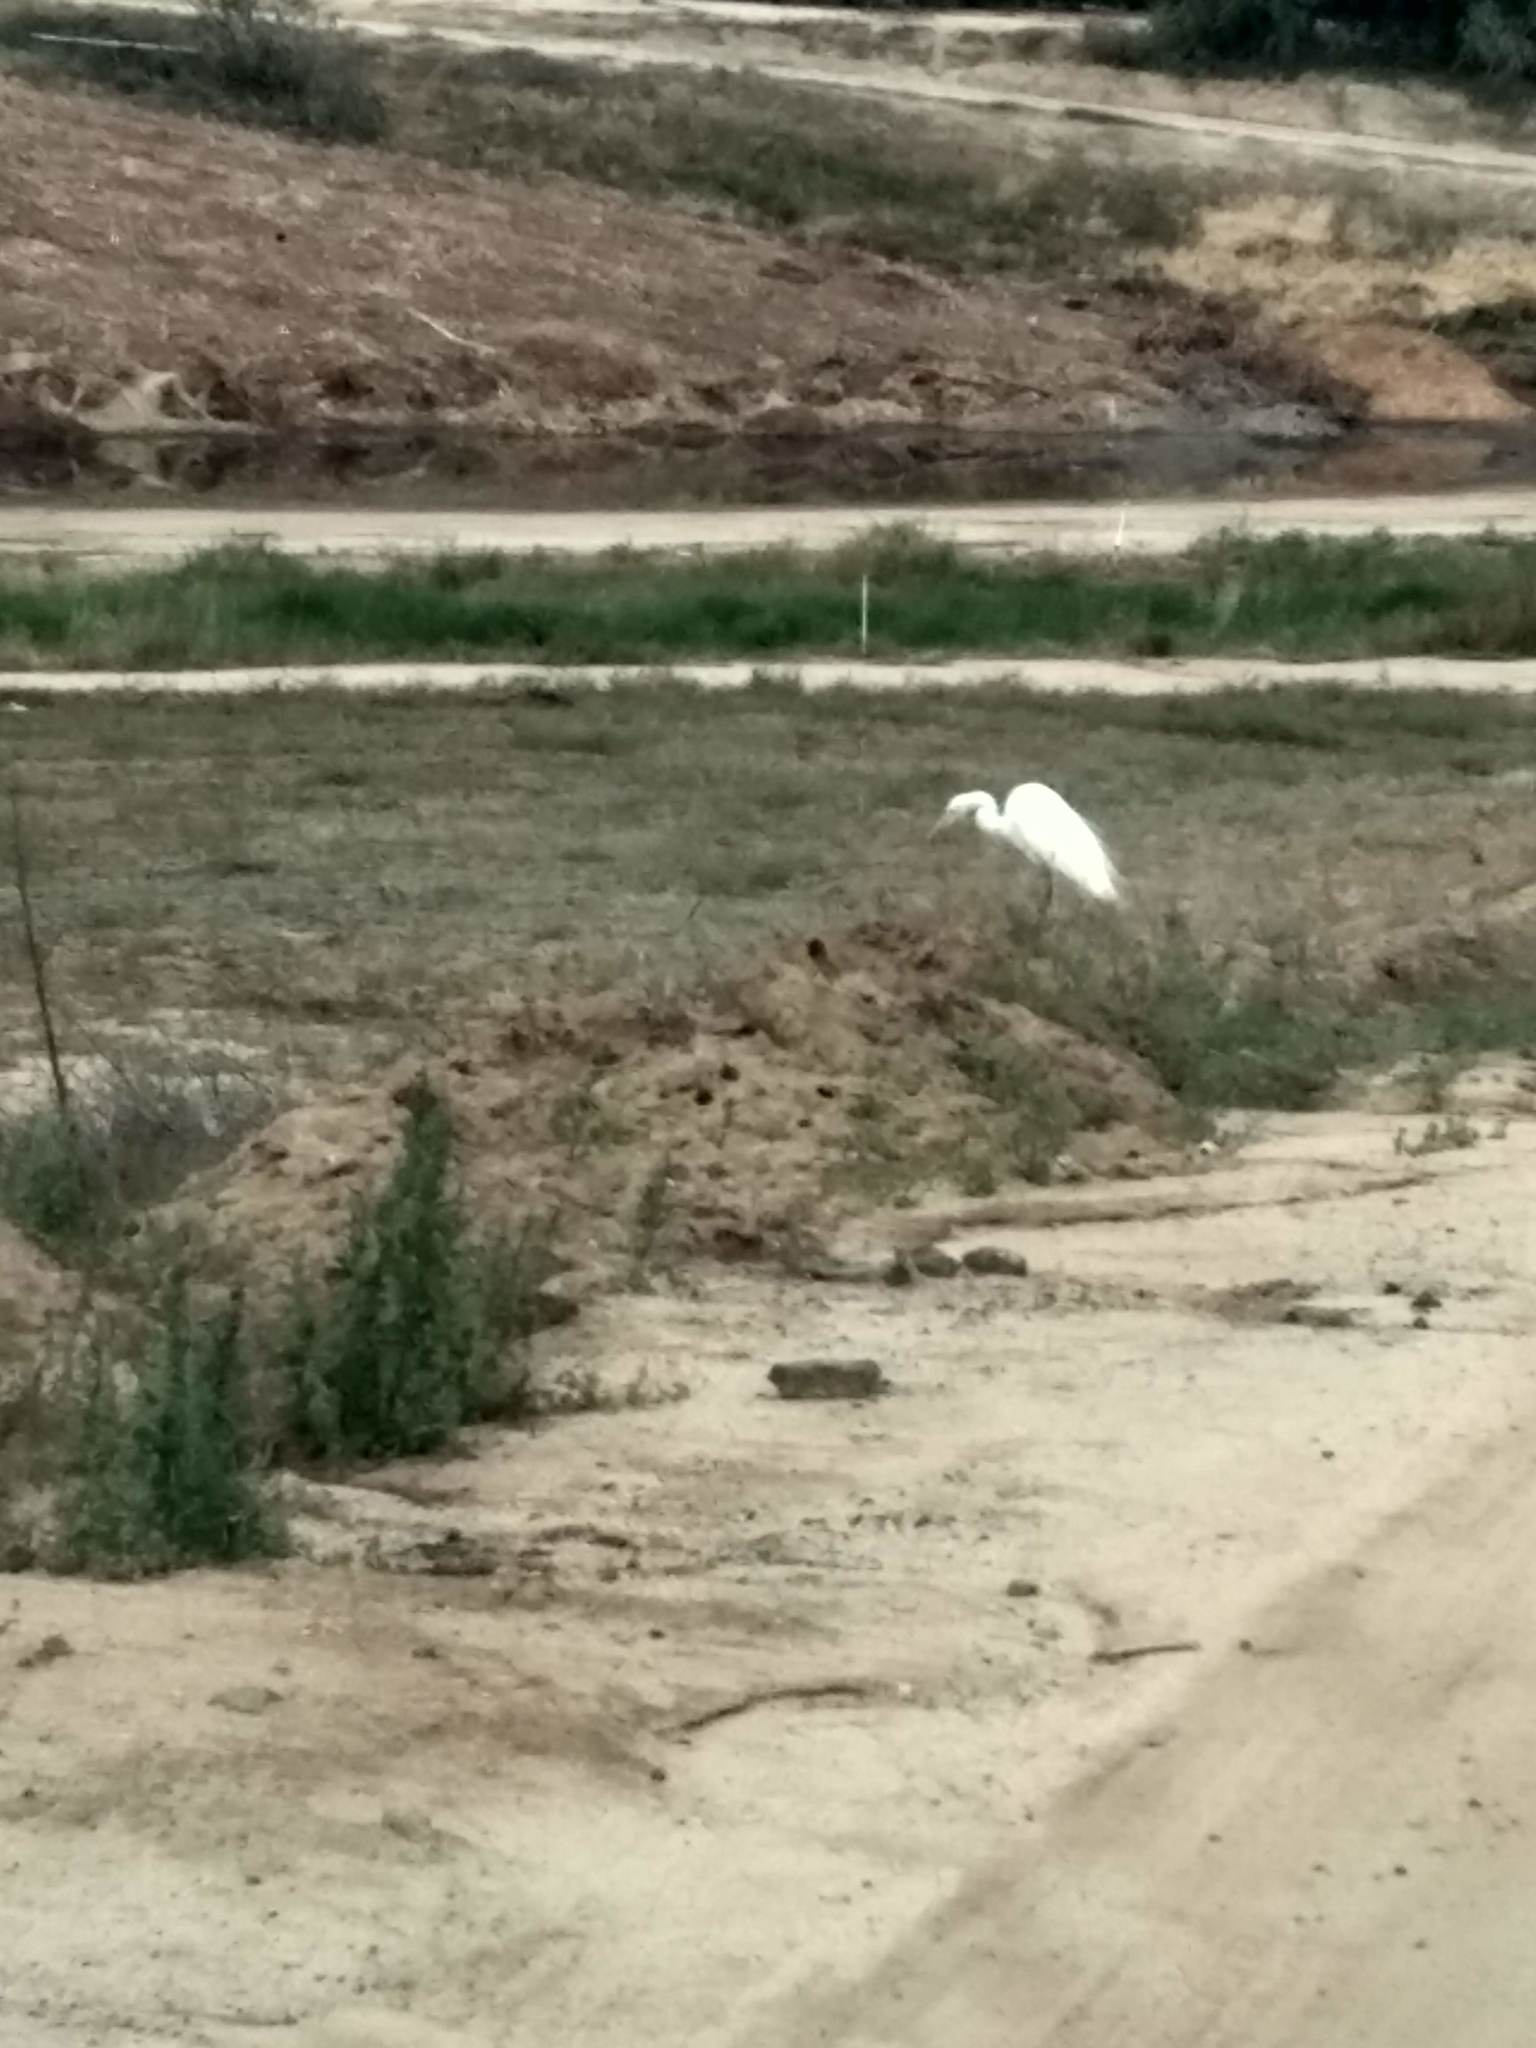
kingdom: Animalia
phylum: Chordata
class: Aves
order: Pelecaniformes
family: Ardeidae
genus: Ardea
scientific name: Ardea alba
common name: Great egret
